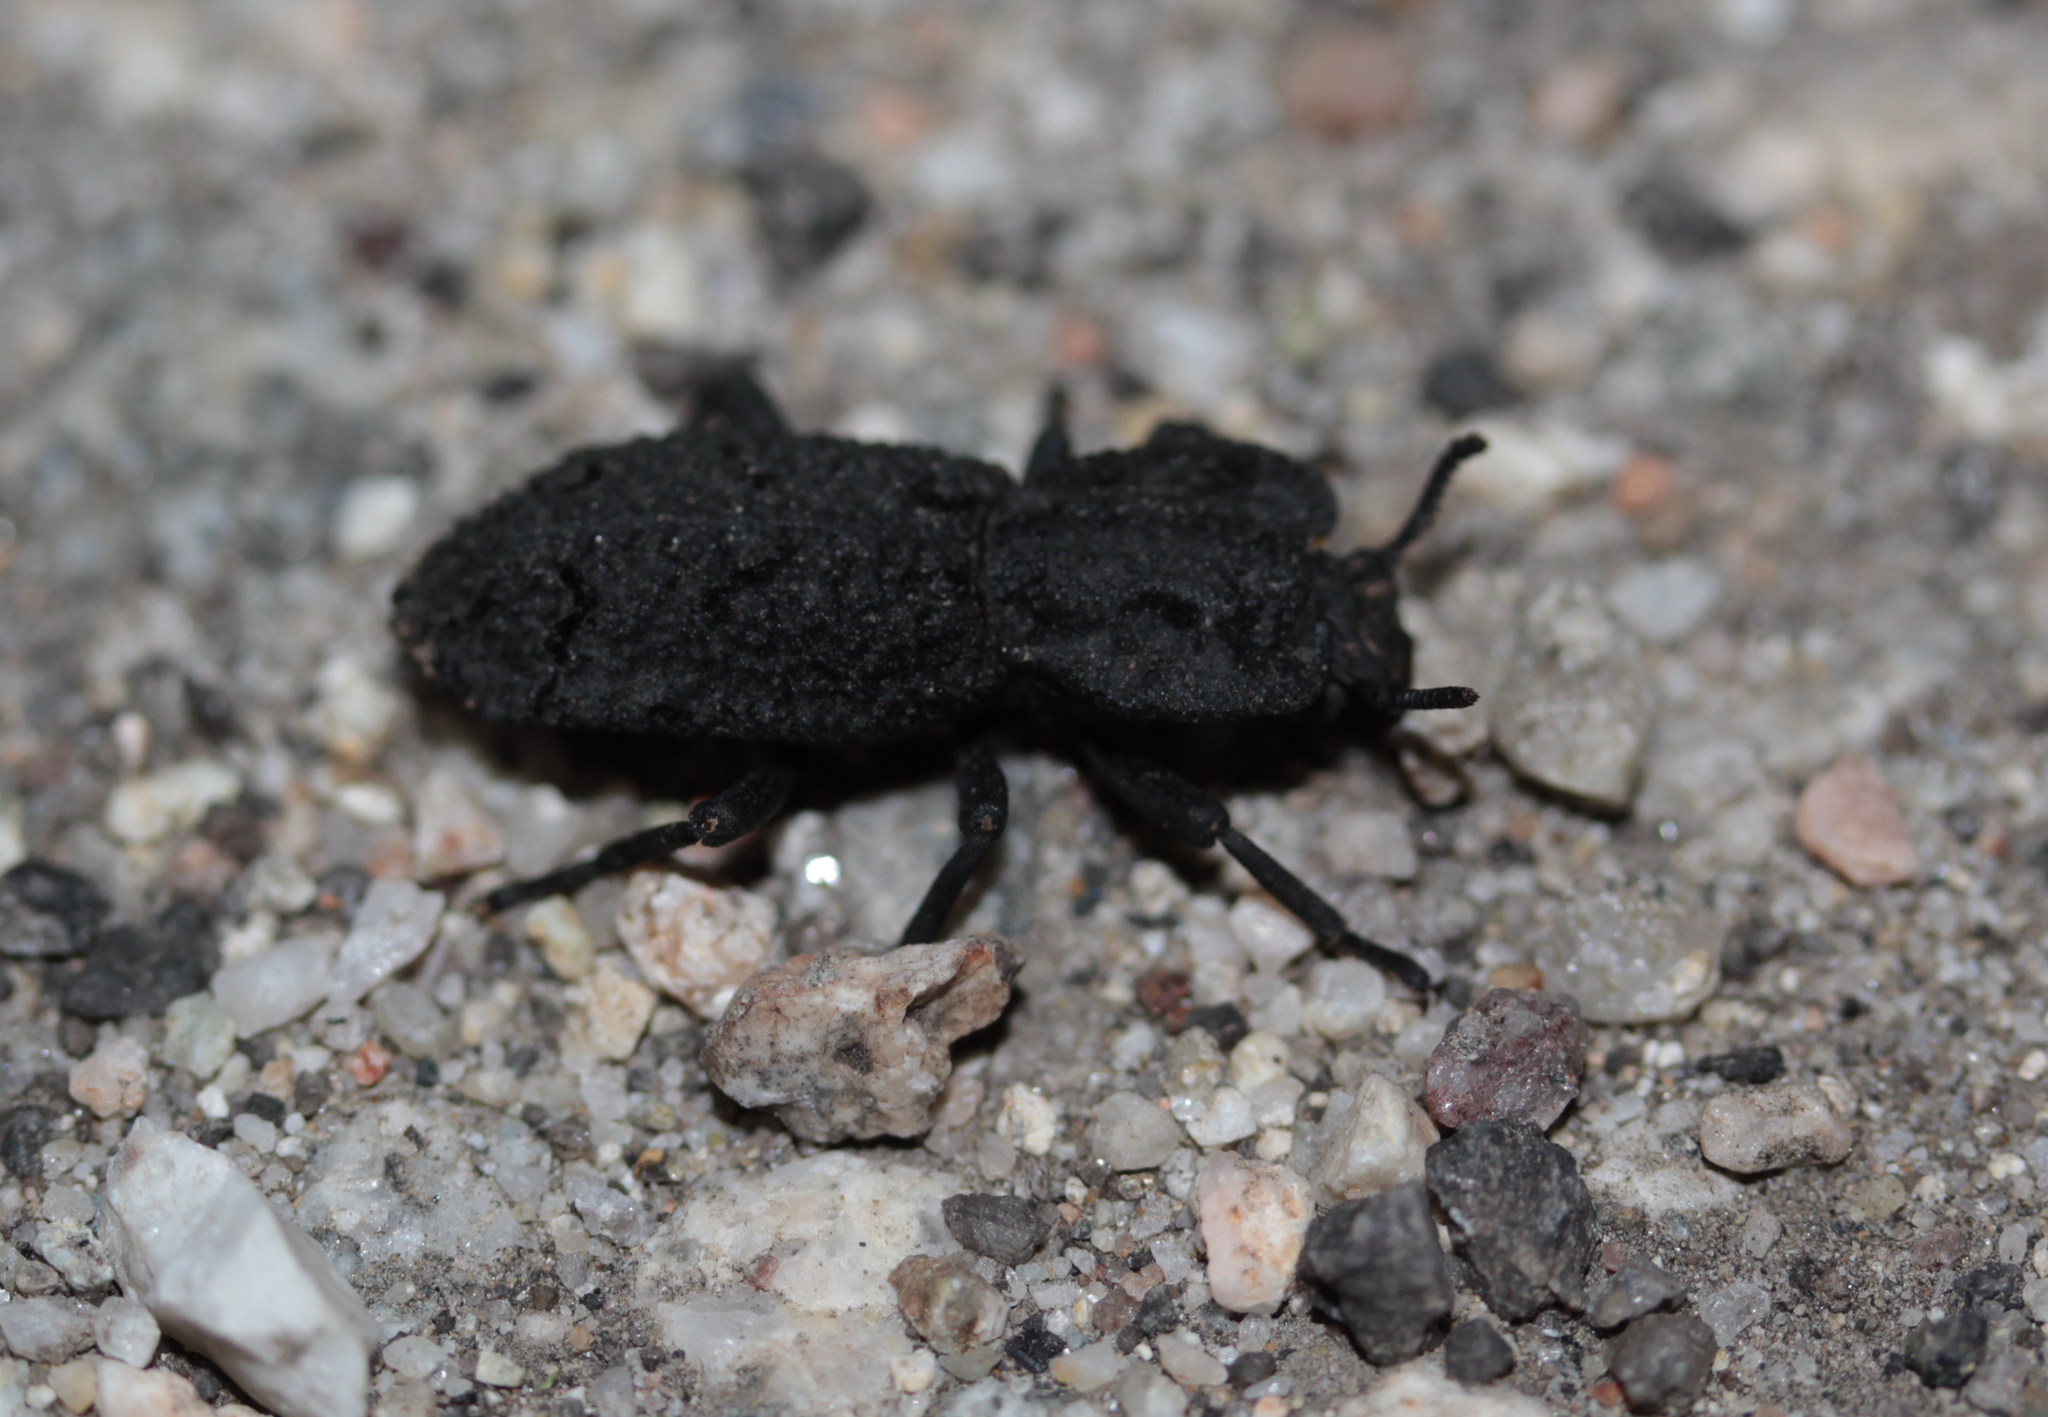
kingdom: Animalia
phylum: Arthropoda
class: Insecta
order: Coleoptera
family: Zopheridae
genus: Phloeodes
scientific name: Phloeodes diabolicus
